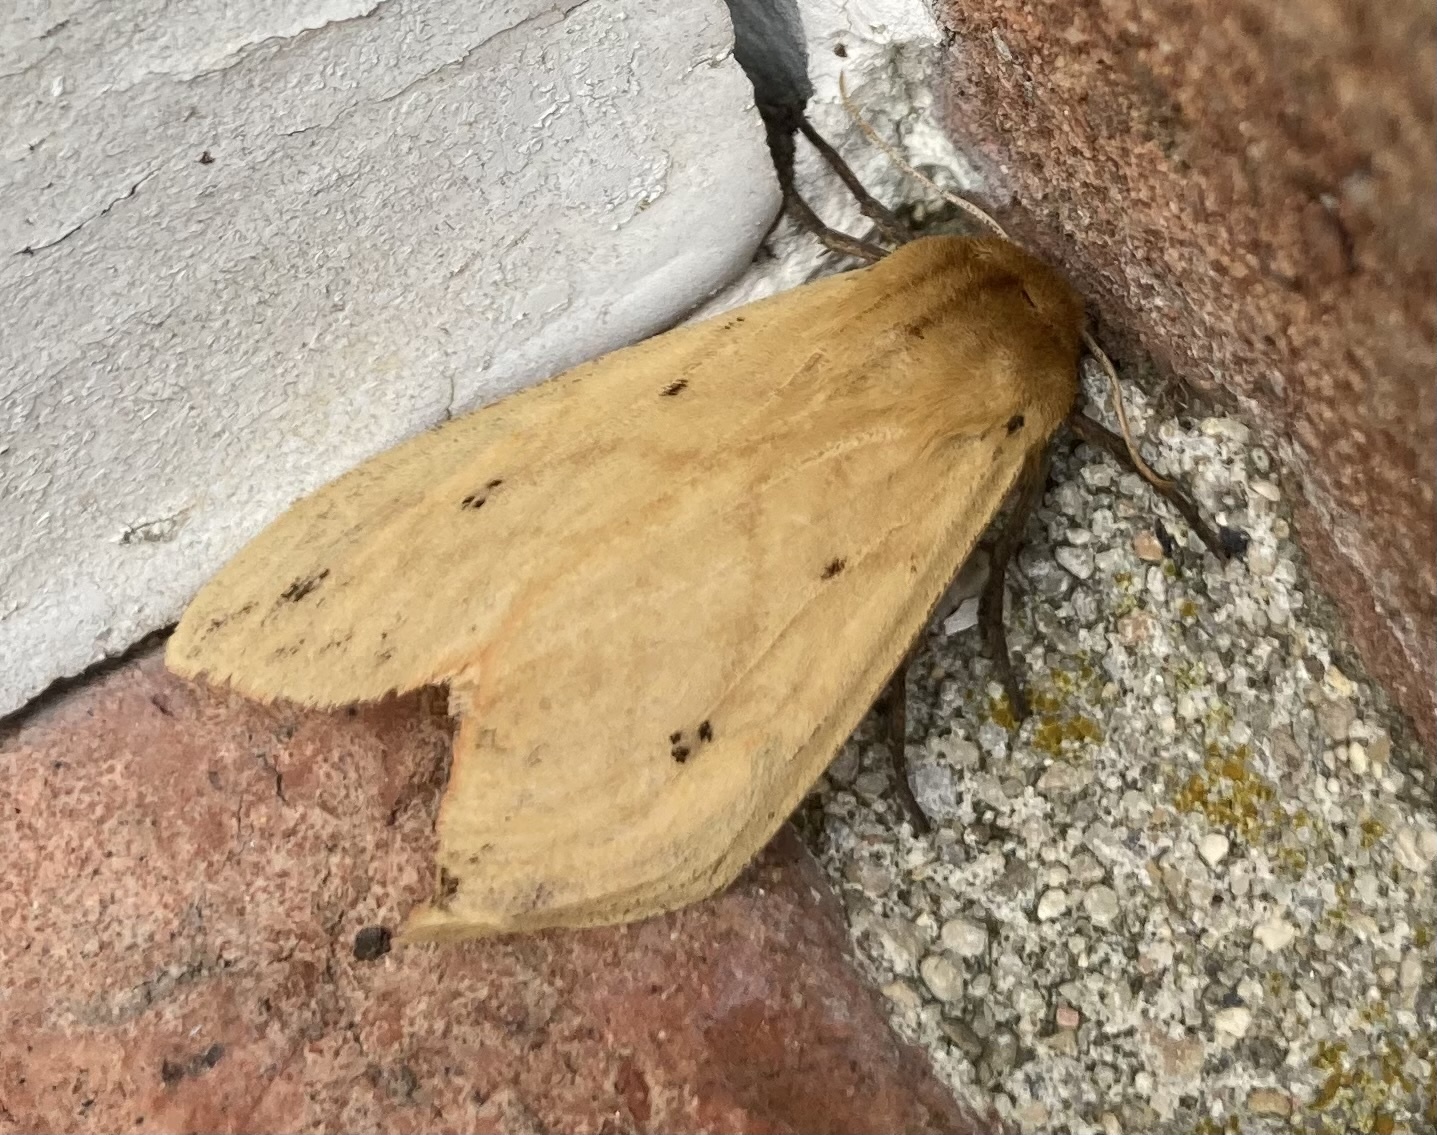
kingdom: Animalia
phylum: Arthropoda
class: Insecta
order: Lepidoptera
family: Erebidae
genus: Pyrrharctia
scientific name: Pyrrharctia isabella
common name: Isabella tiger moth
